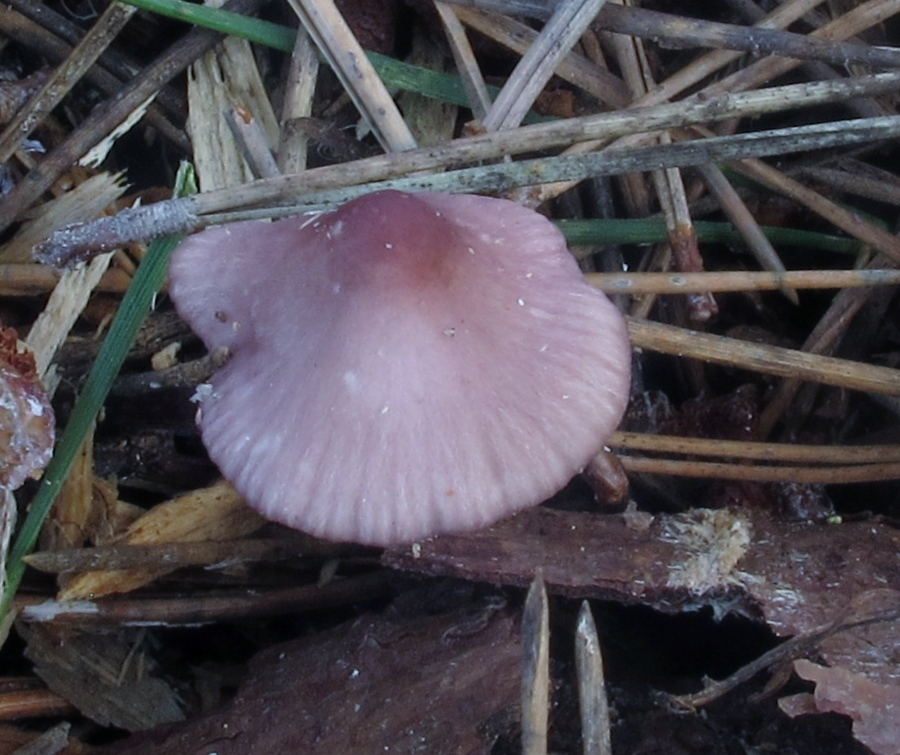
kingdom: Fungi
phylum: Basidiomycota
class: Agaricomycetes
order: Agaricales
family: Mycenaceae
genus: Mycena
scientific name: Mycena purpureofusca
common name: Purple edge bonnet
